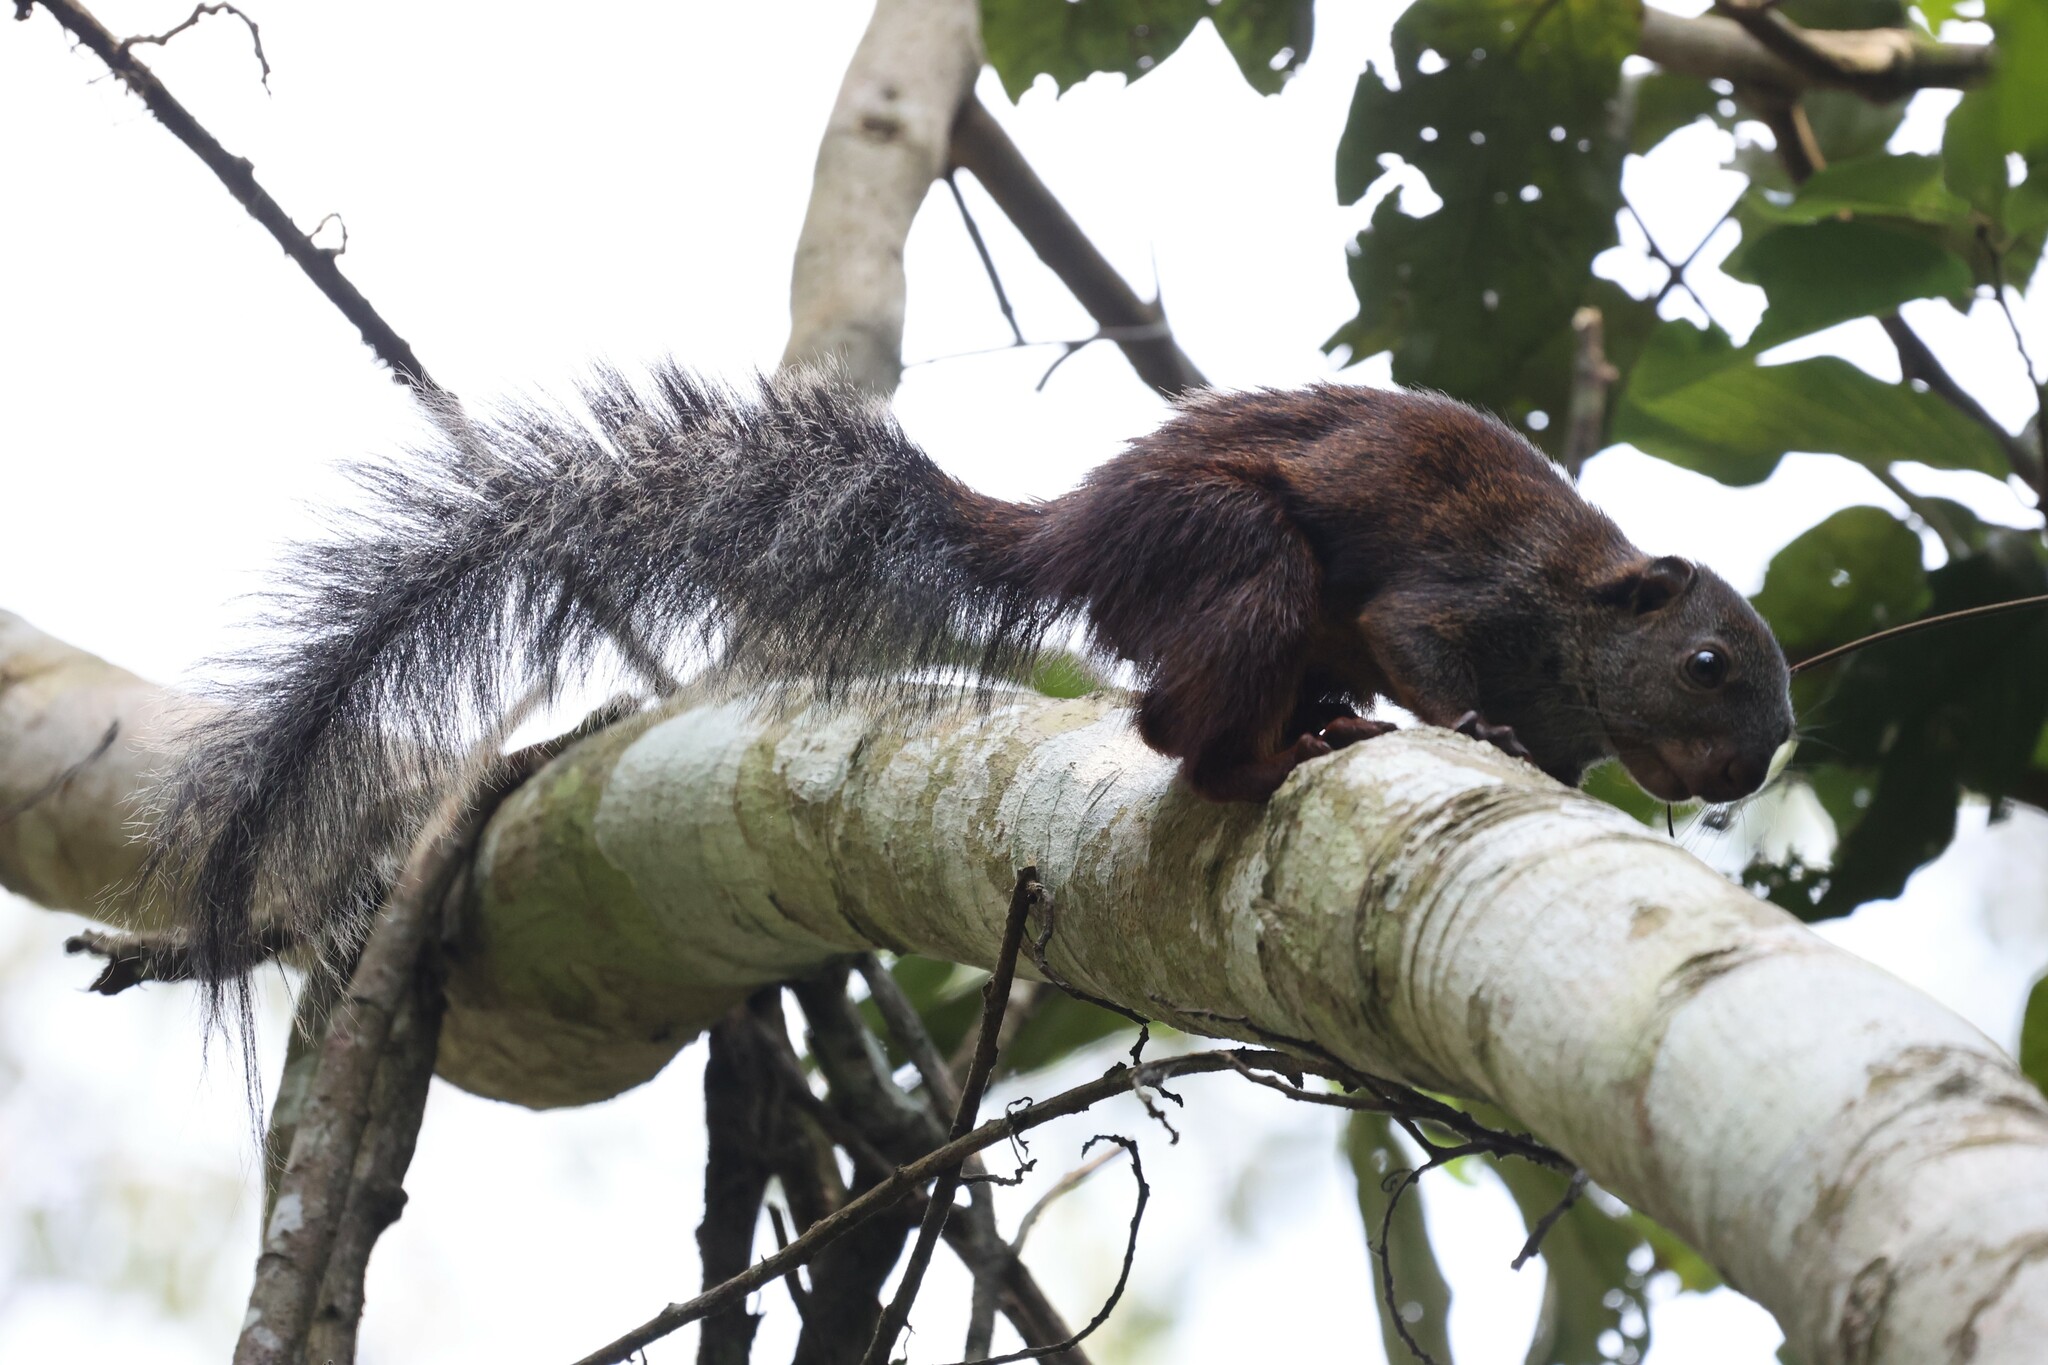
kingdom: Animalia
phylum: Chordata
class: Mammalia
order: Rodentia
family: Sciuridae
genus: Protoxerus
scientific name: Protoxerus stangeri
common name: Forest giant squirrel
